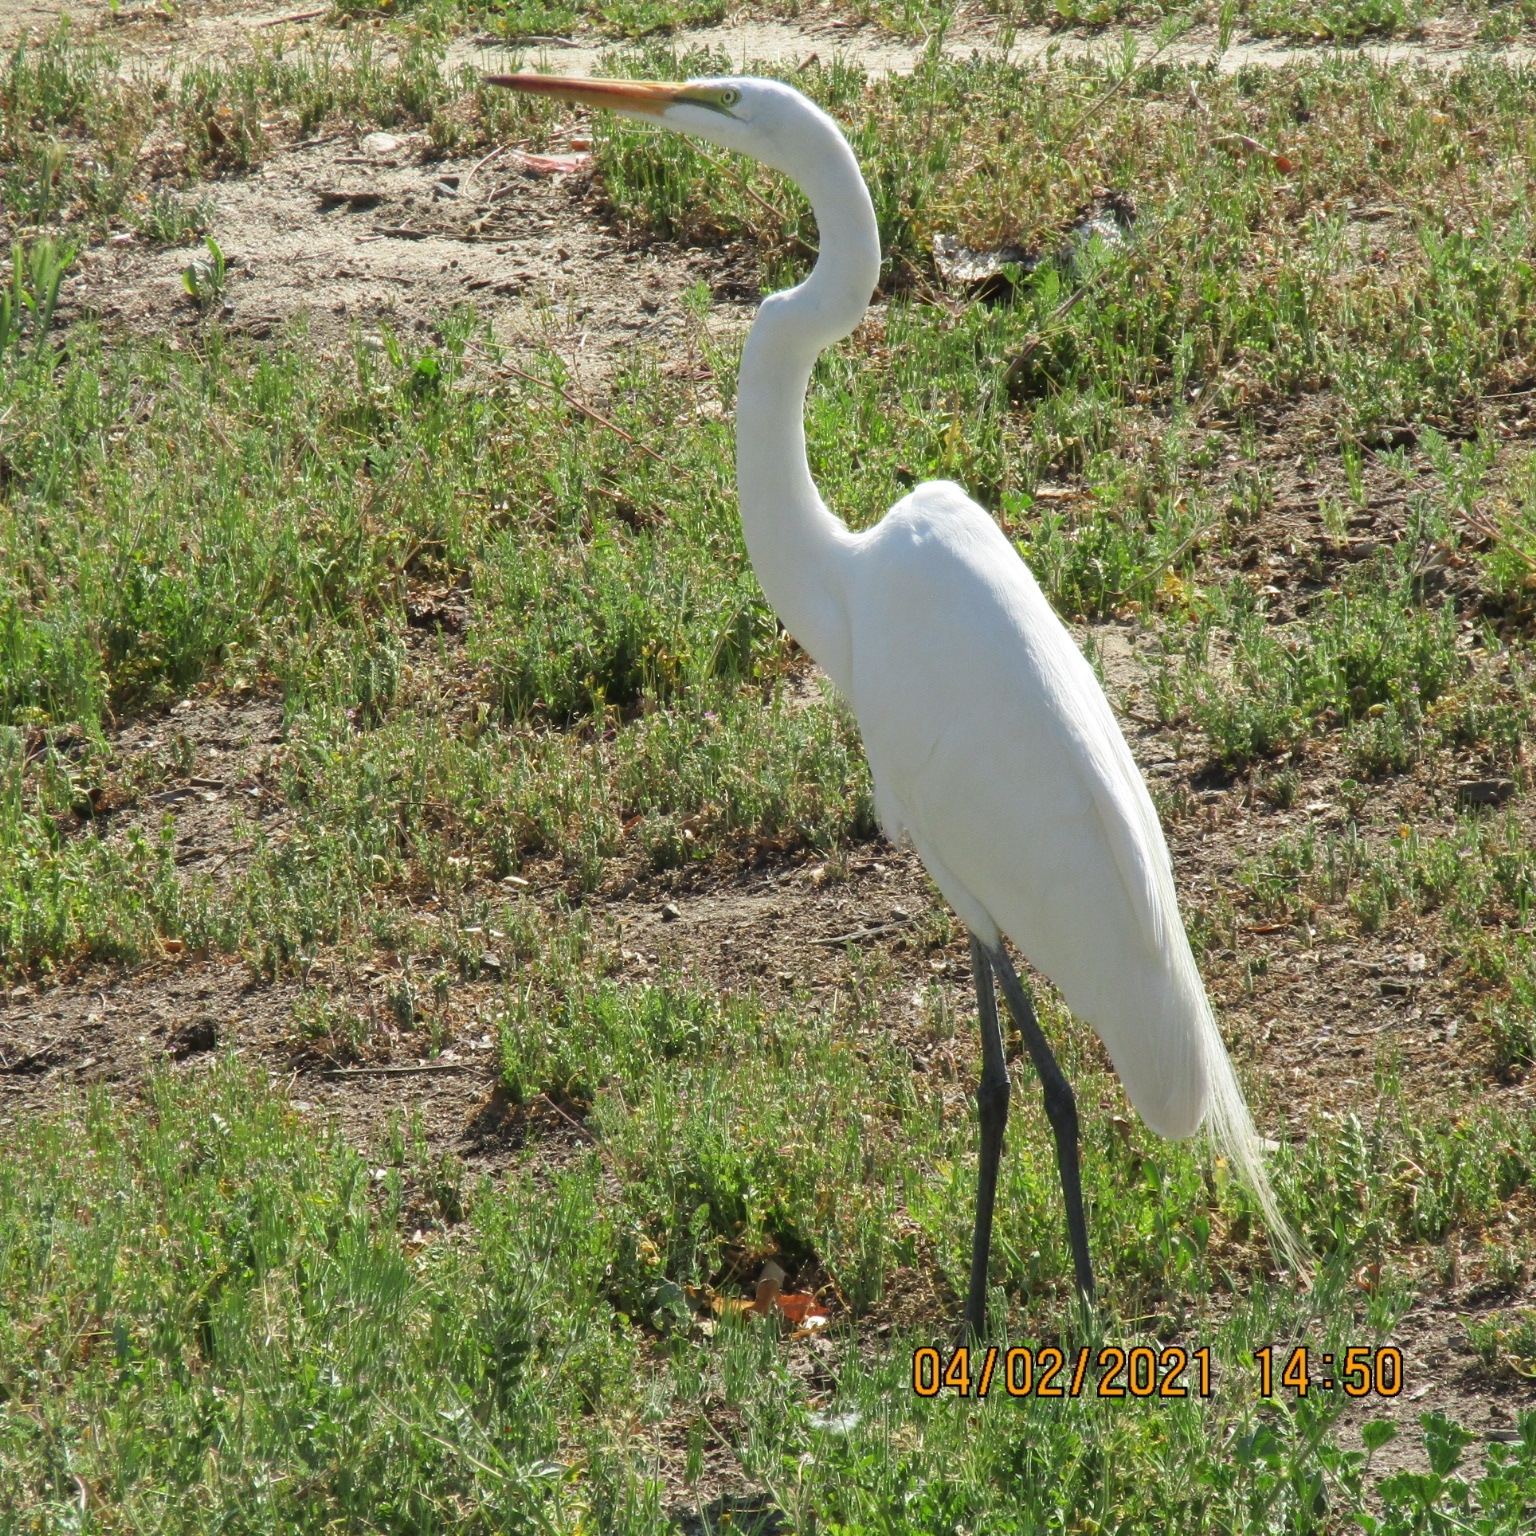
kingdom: Animalia
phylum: Chordata
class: Aves
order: Pelecaniformes
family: Ardeidae
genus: Ardea
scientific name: Ardea alba
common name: Great egret
